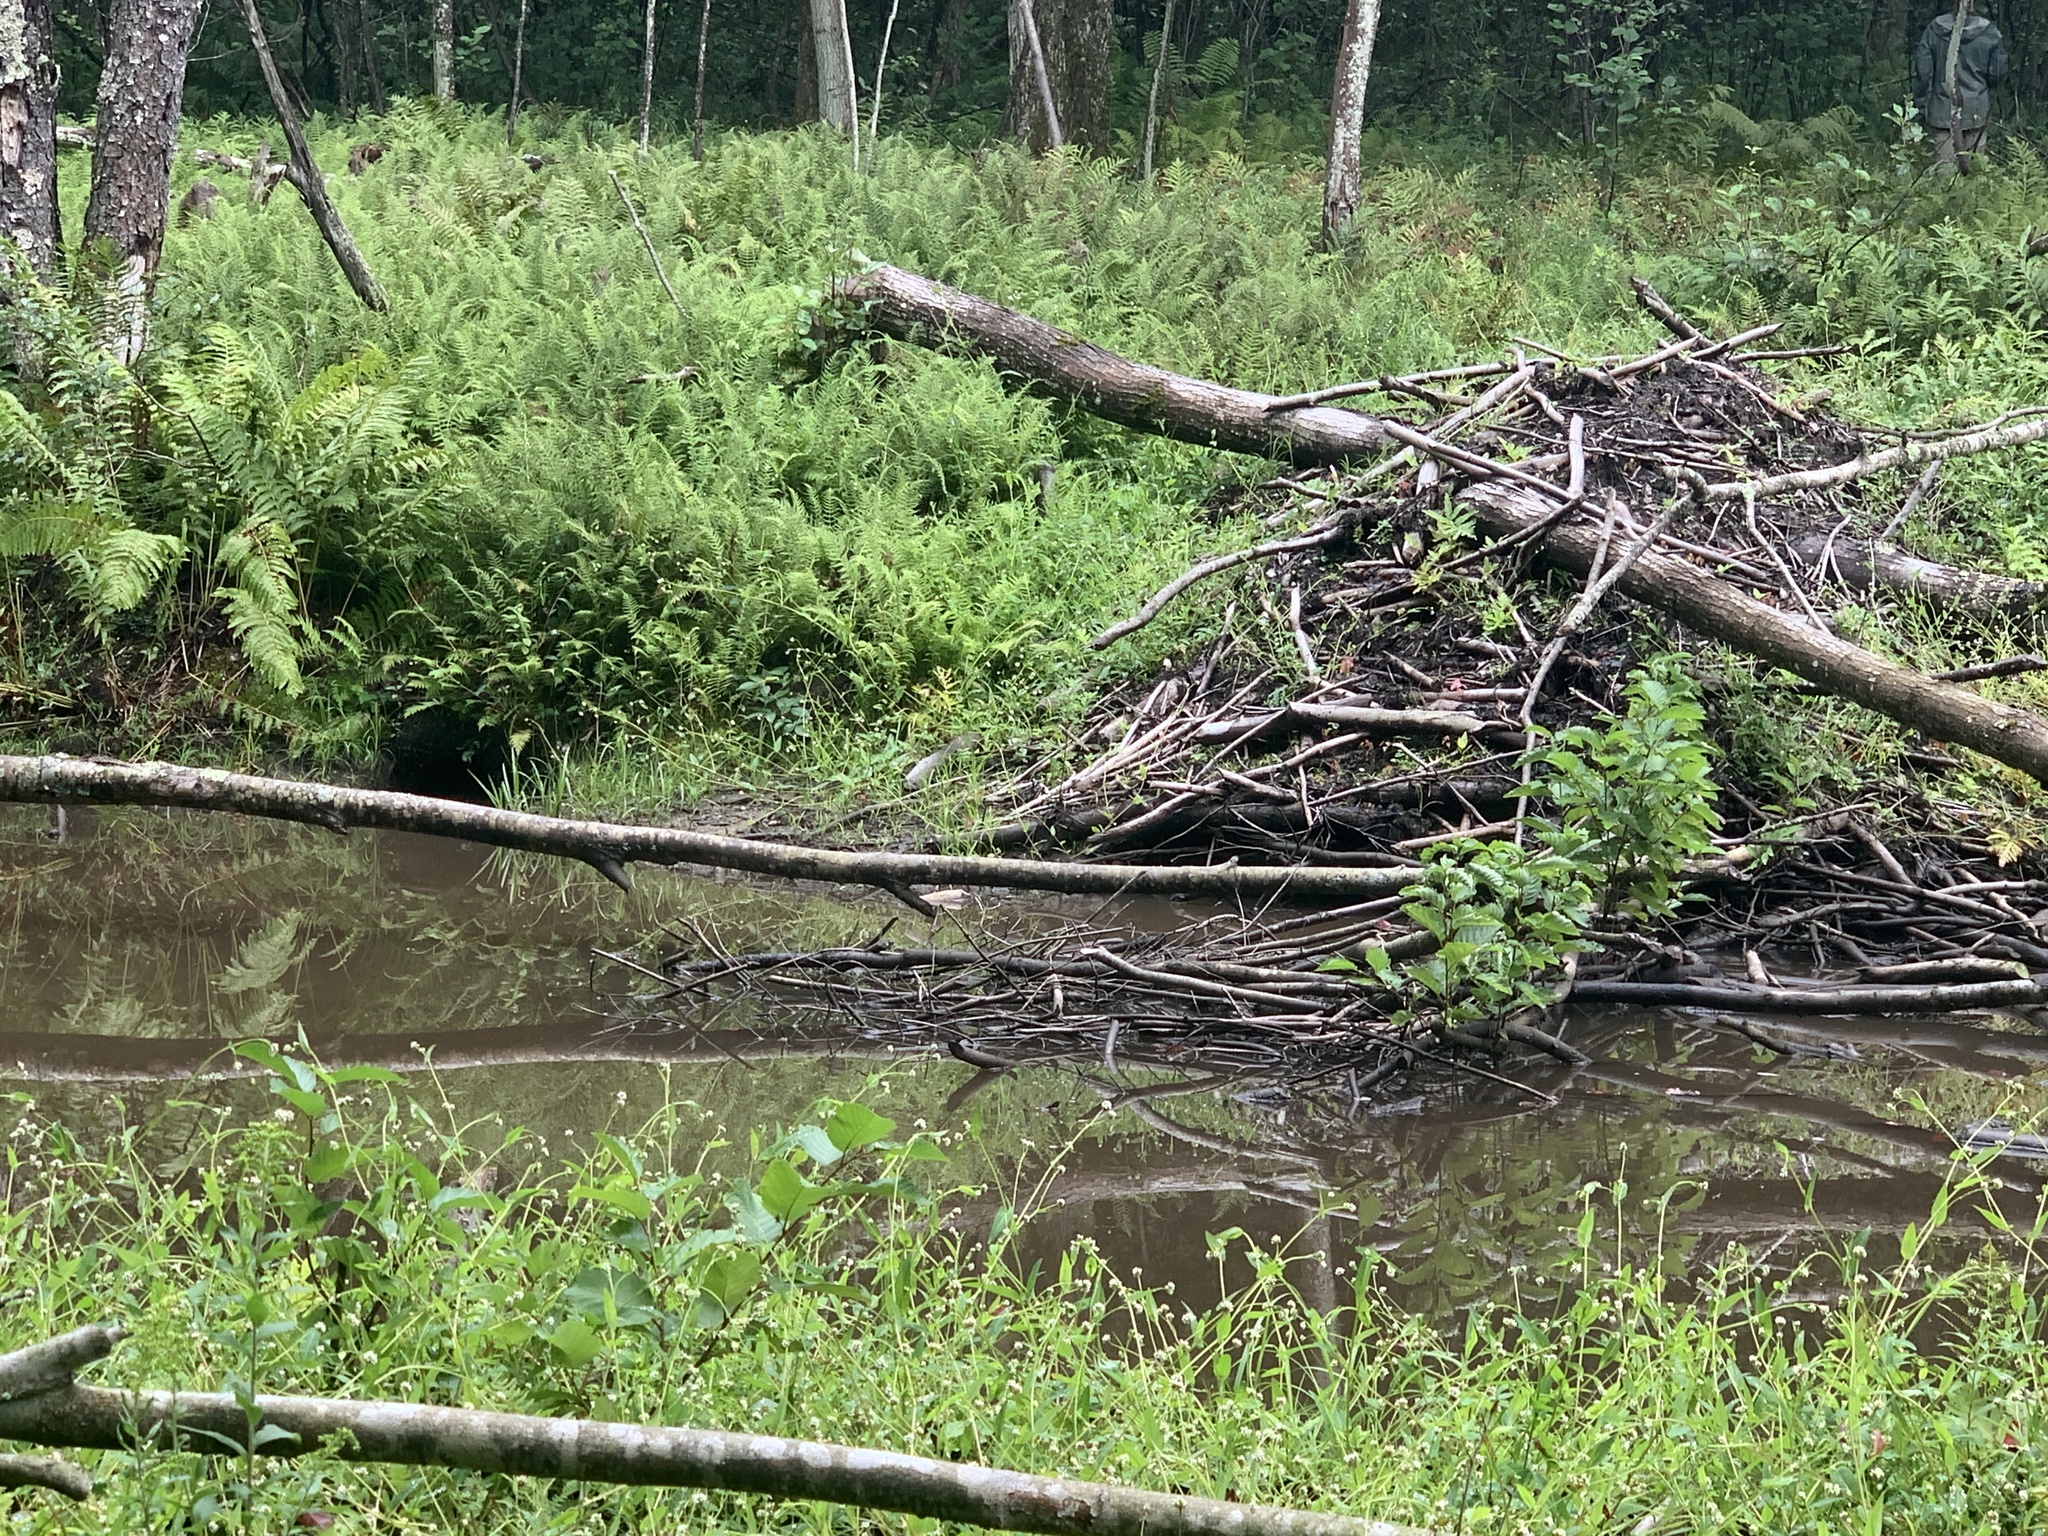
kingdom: Animalia
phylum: Chordata
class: Mammalia
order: Rodentia
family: Castoridae
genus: Castor
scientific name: Castor canadensis
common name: American beaver
